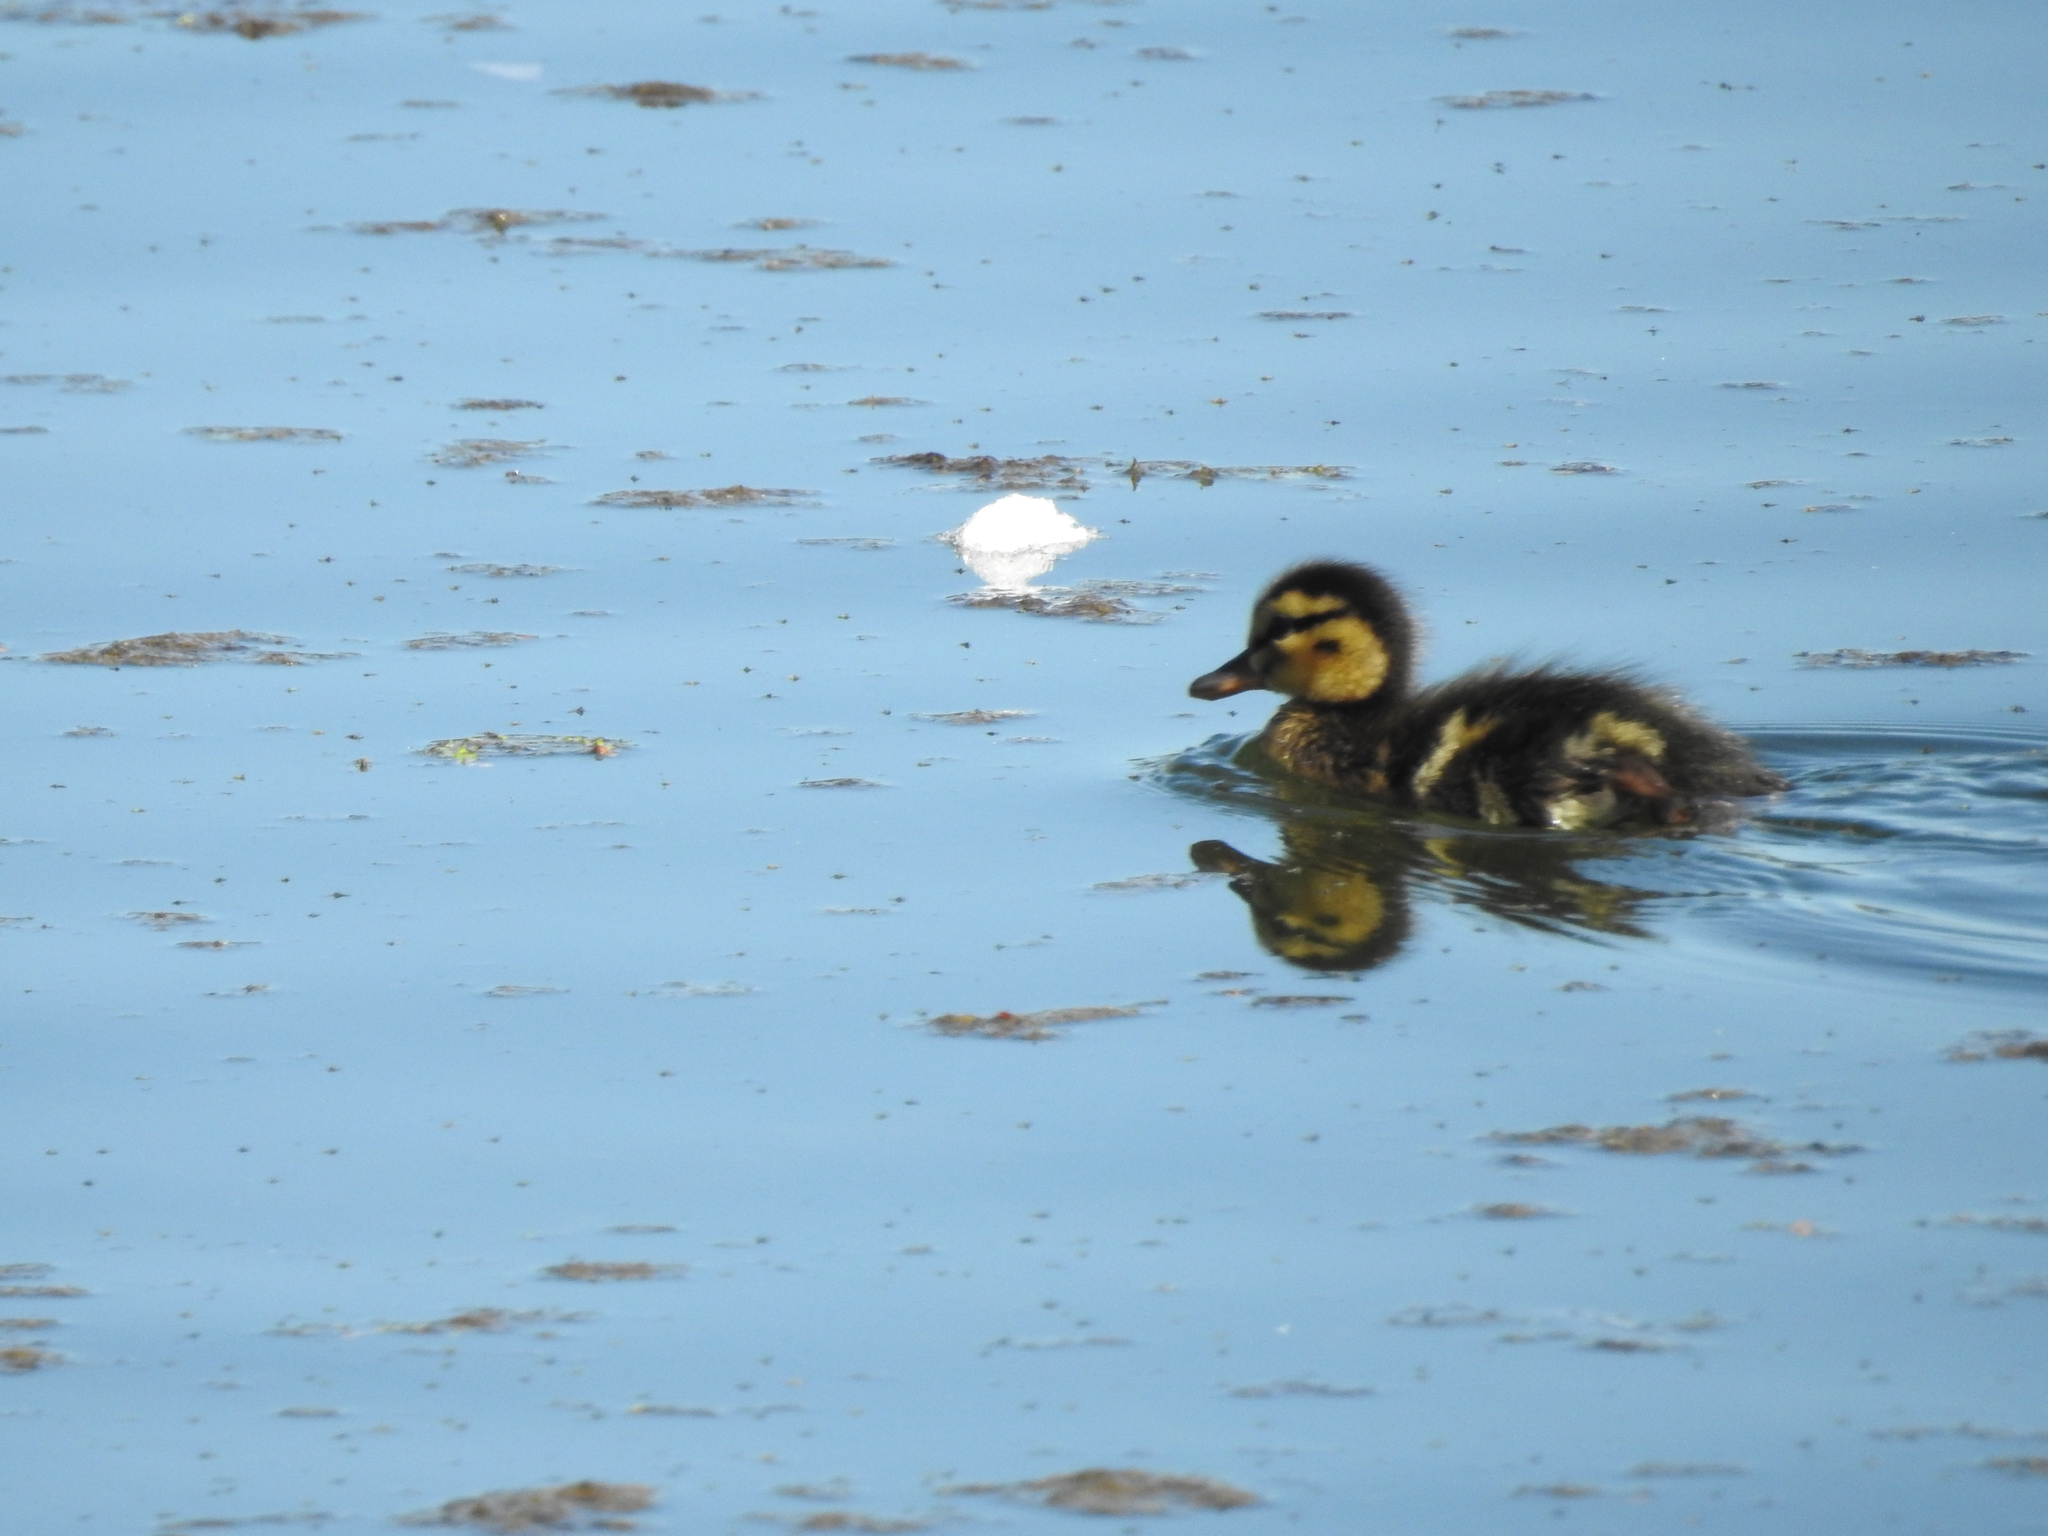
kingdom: Animalia
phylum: Chordata
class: Aves
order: Anseriformes
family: Anatidae
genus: Anas
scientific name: Anas platyrhynchos
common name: Mallard
